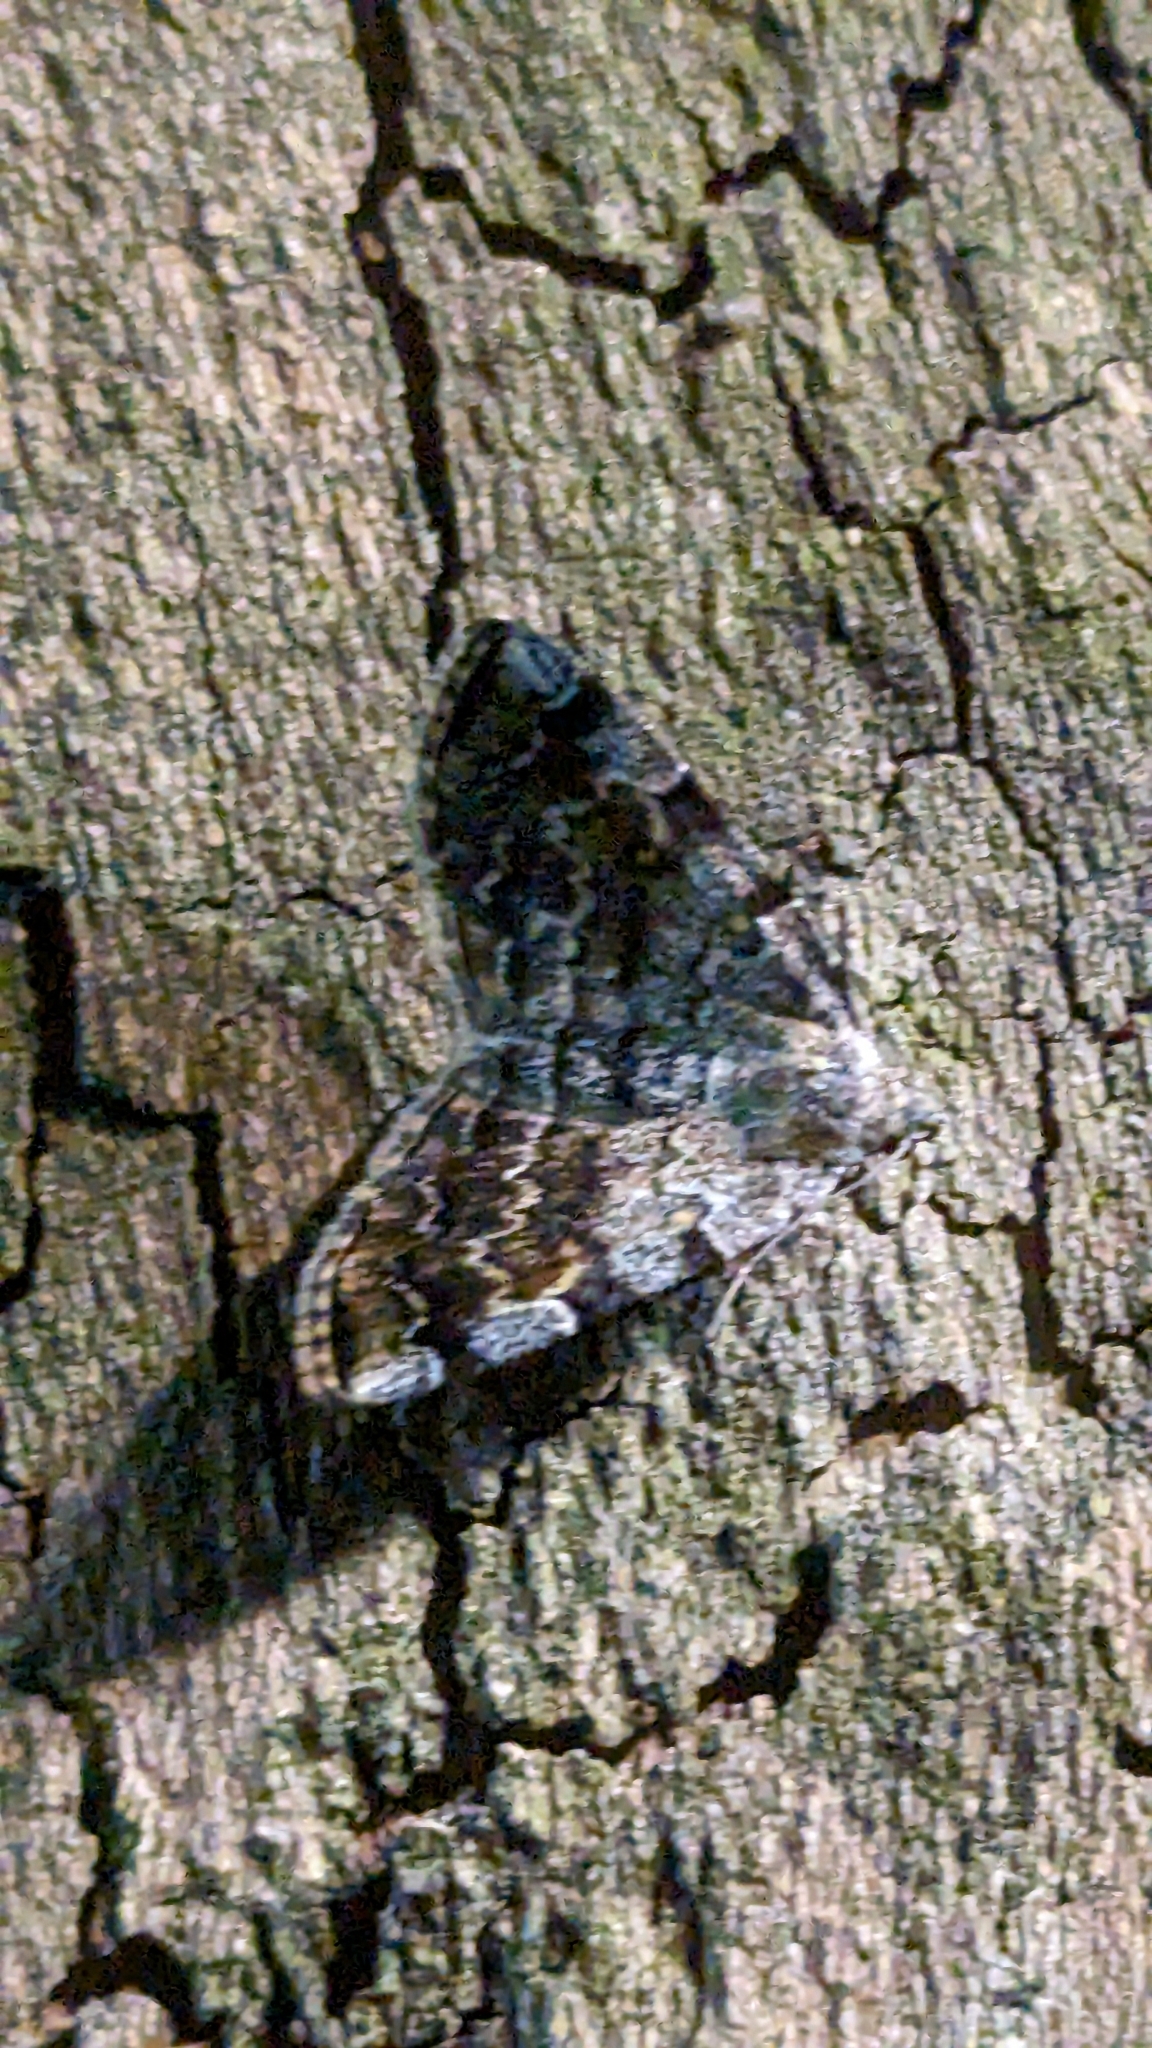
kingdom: Animalia
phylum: Arthropoda
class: Insecta
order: Lepidoptera
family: Erebidae
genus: Idia
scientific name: Idia americalis
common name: American idia moth
